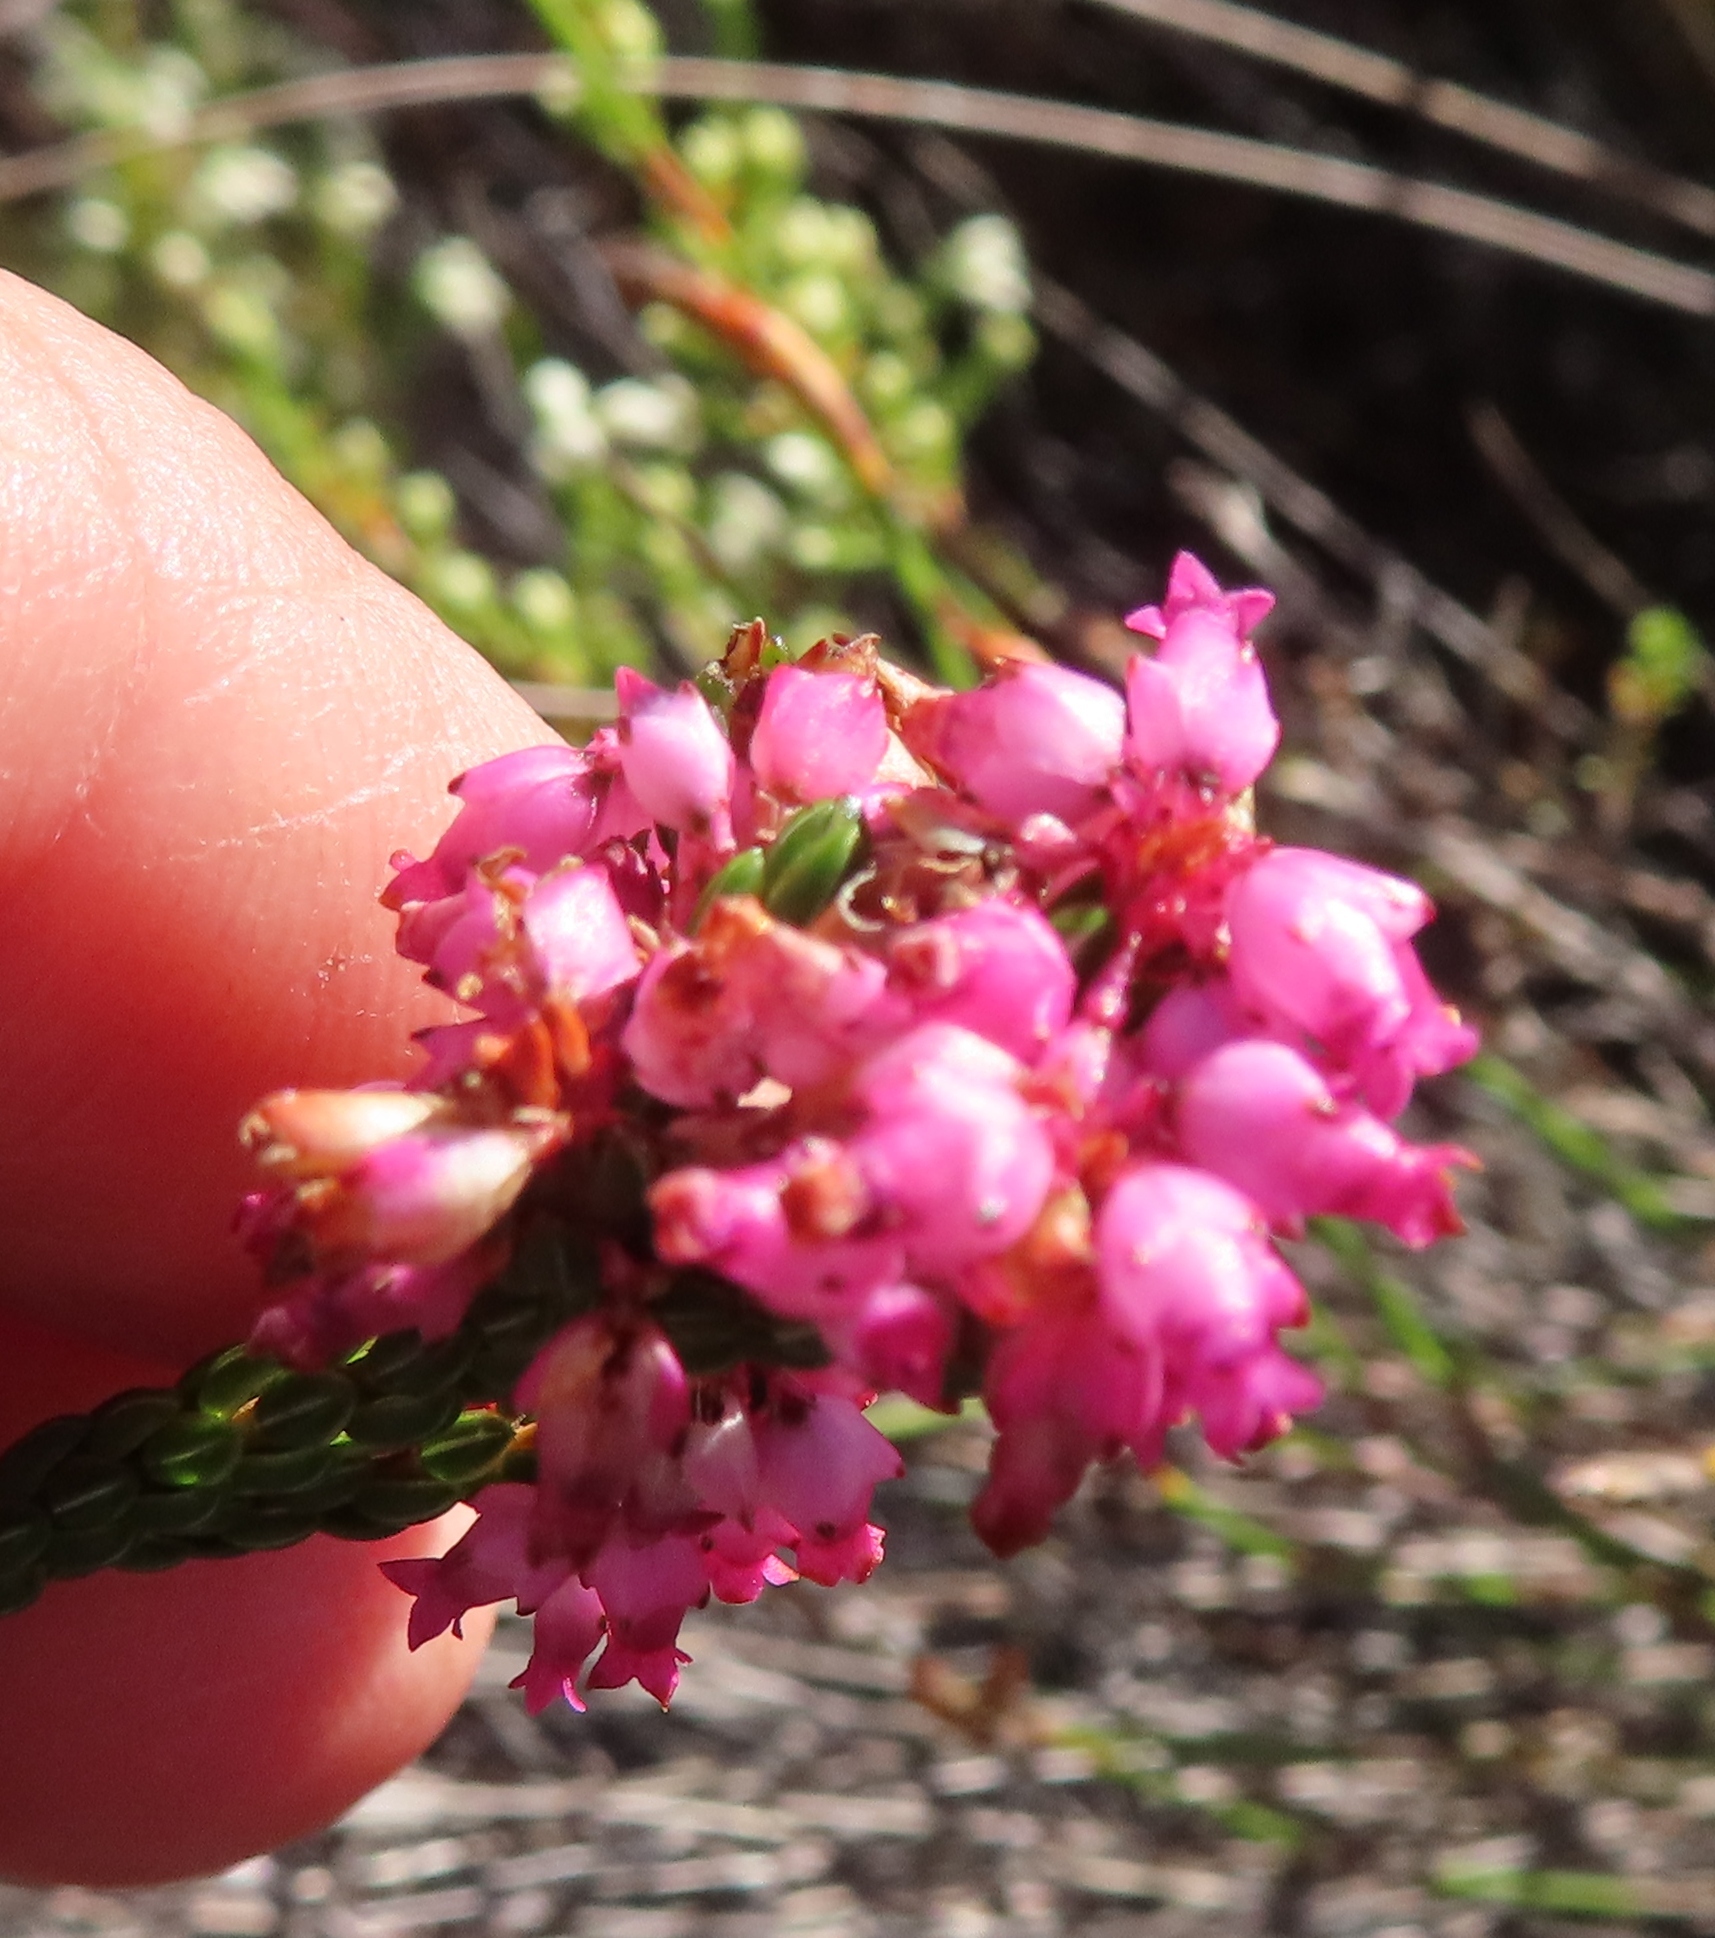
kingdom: Plantae
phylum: Tracheophyta
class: Magnoliopsida
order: Ericales
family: Ericaceae
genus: Erica
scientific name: Erica rhopalantha
